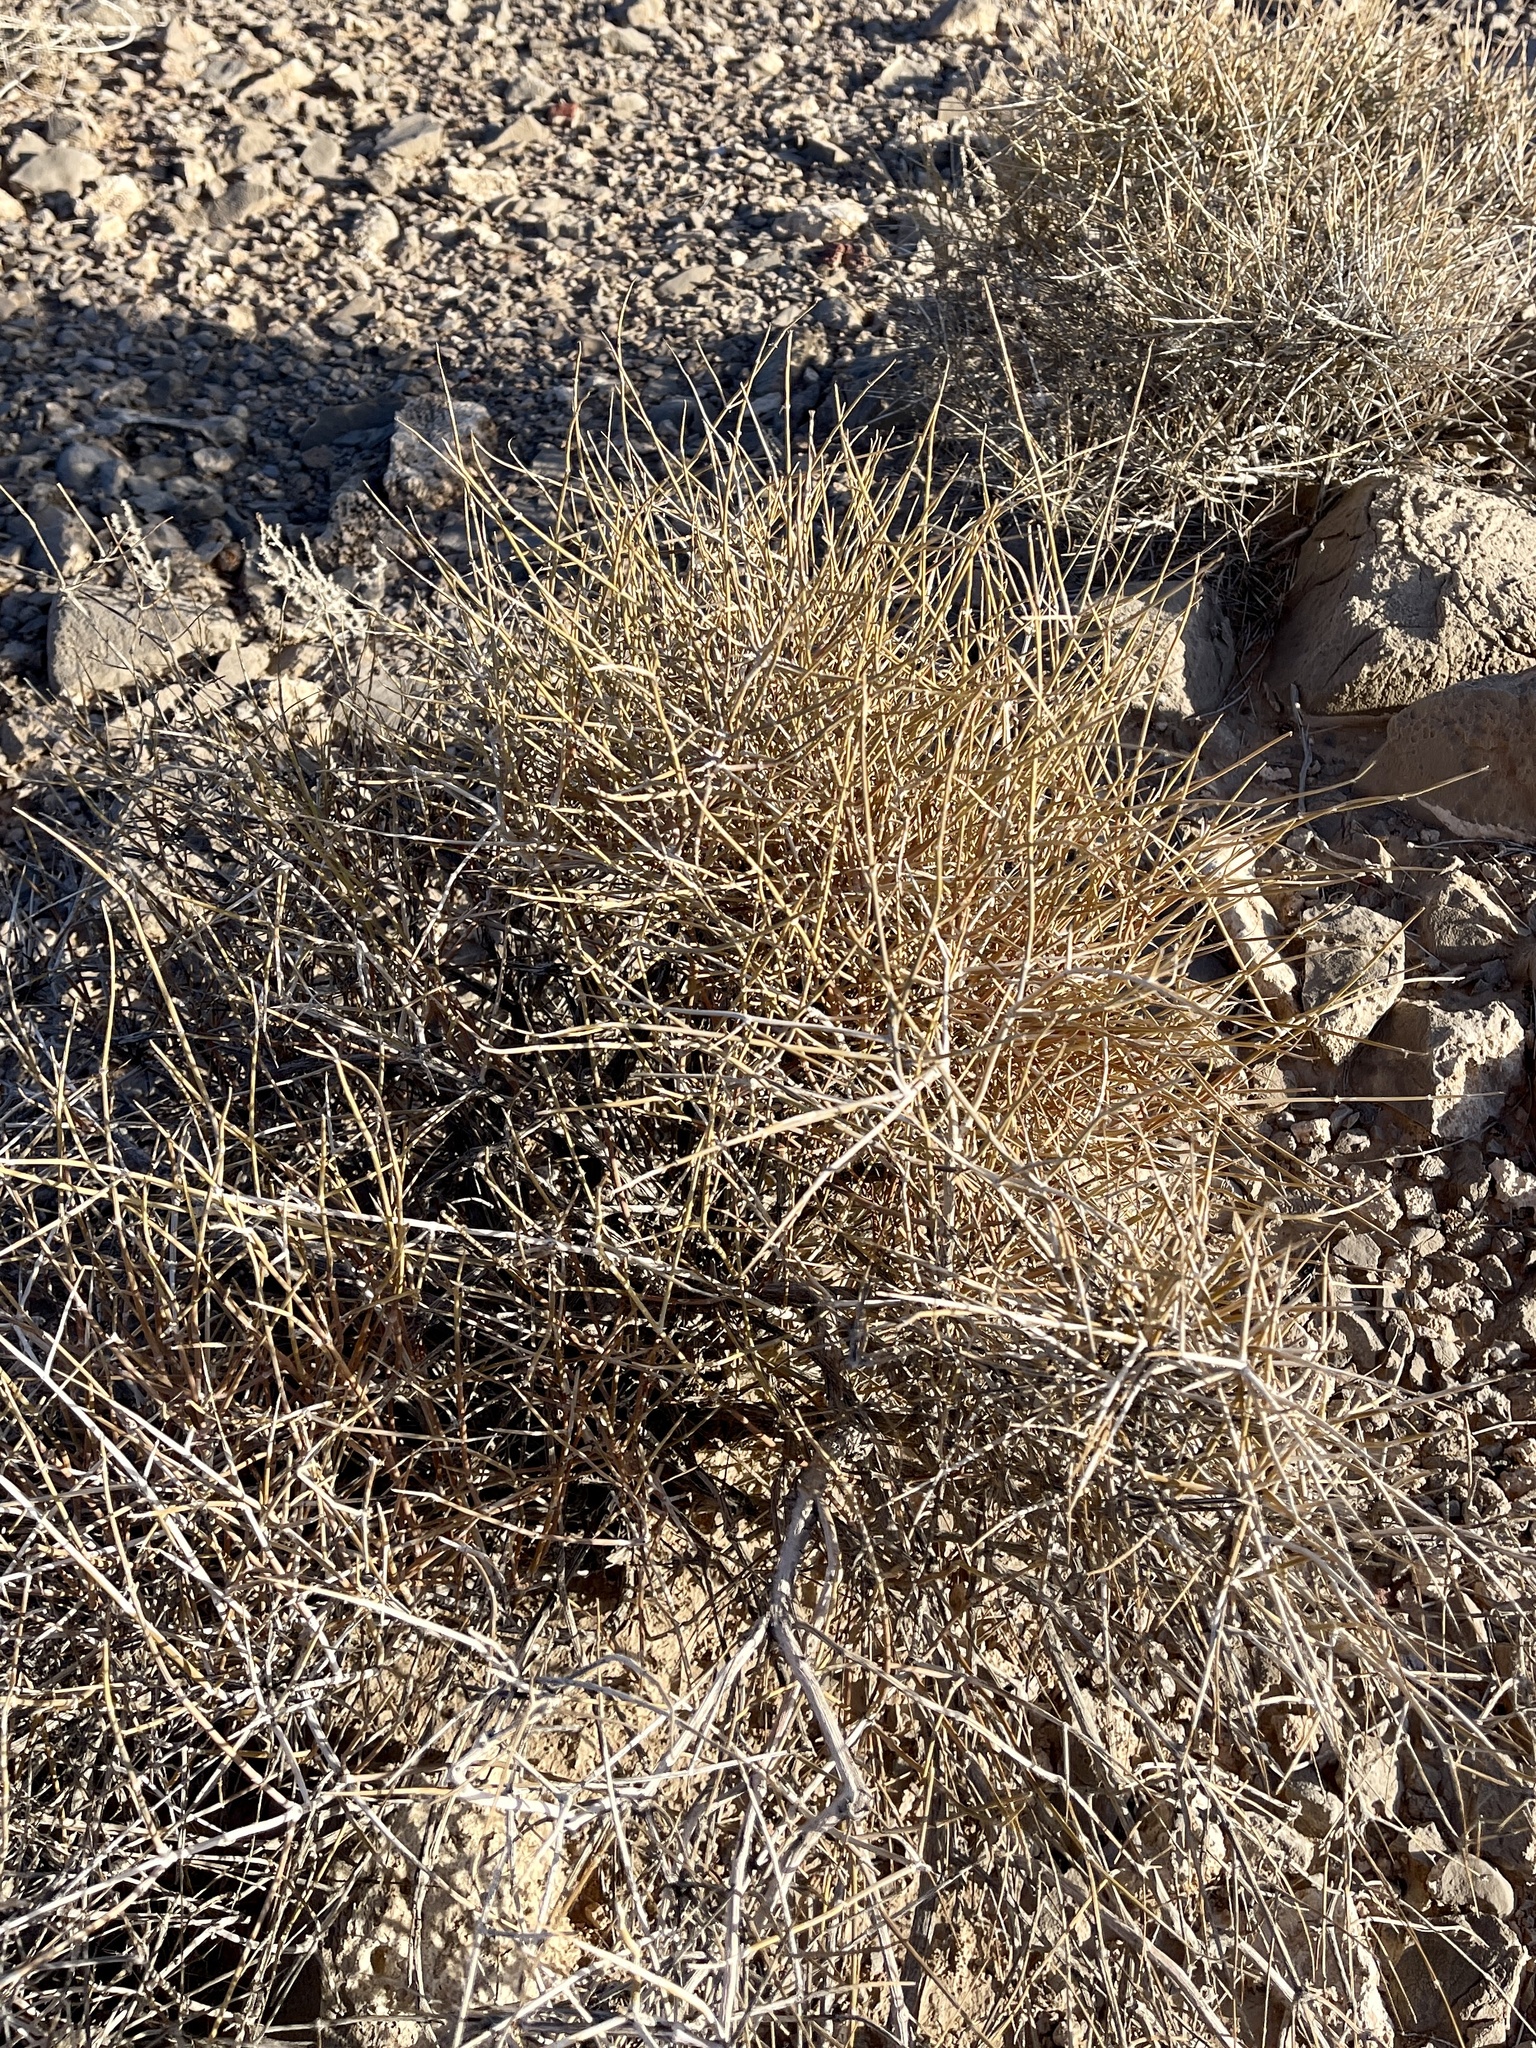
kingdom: Plantae
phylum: Tracheophyta
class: Gnetopsida
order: Ephedrales
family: Ephedraceae
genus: Ephedra
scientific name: Ephedra nevadensis
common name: Gray ephedra
